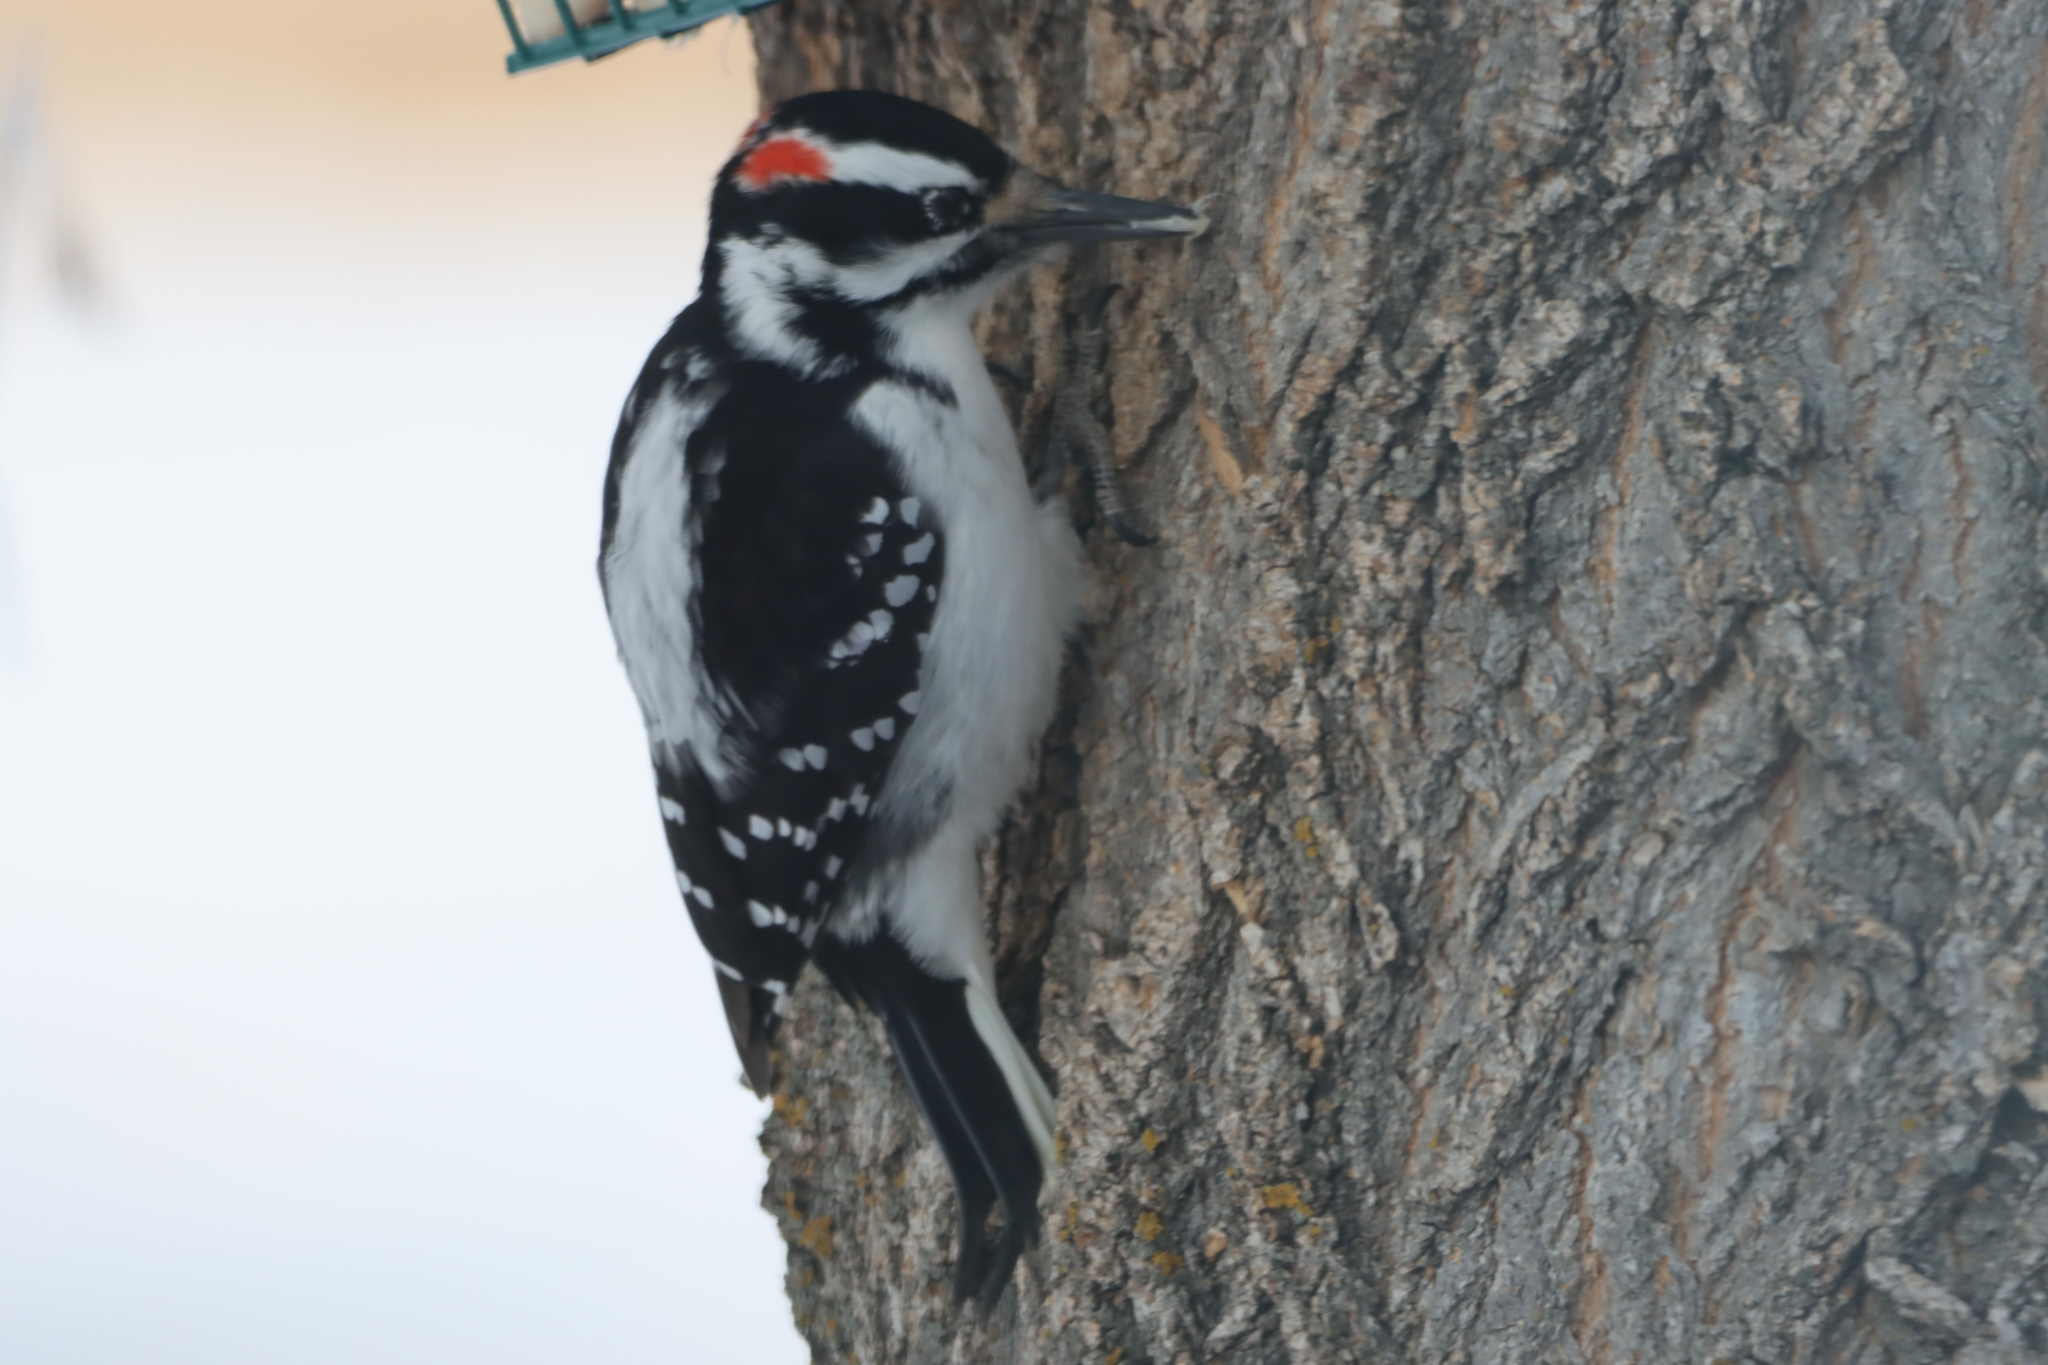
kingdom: Animalia
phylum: Chordata
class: Aves
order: Piciformes
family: Picidae
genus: Leuconotopicus
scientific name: Leuconotopicus villosus
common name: Hairy woodpecker
